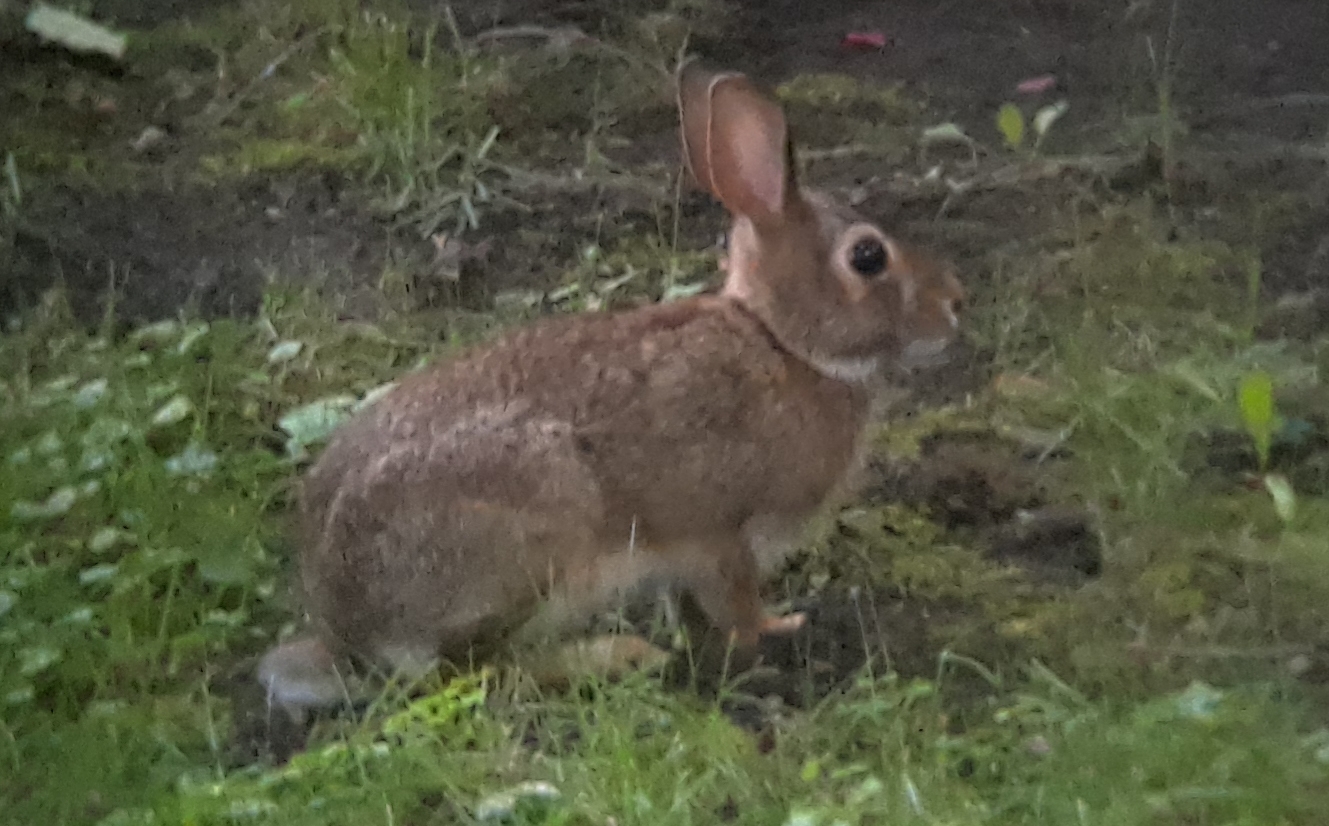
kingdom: Animalia
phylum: Chordata
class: Mammalia
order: Lagomorpha
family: Leporidae
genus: Sylvilagus
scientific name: Sylvilagus floridanus
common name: Eastern cottontail
